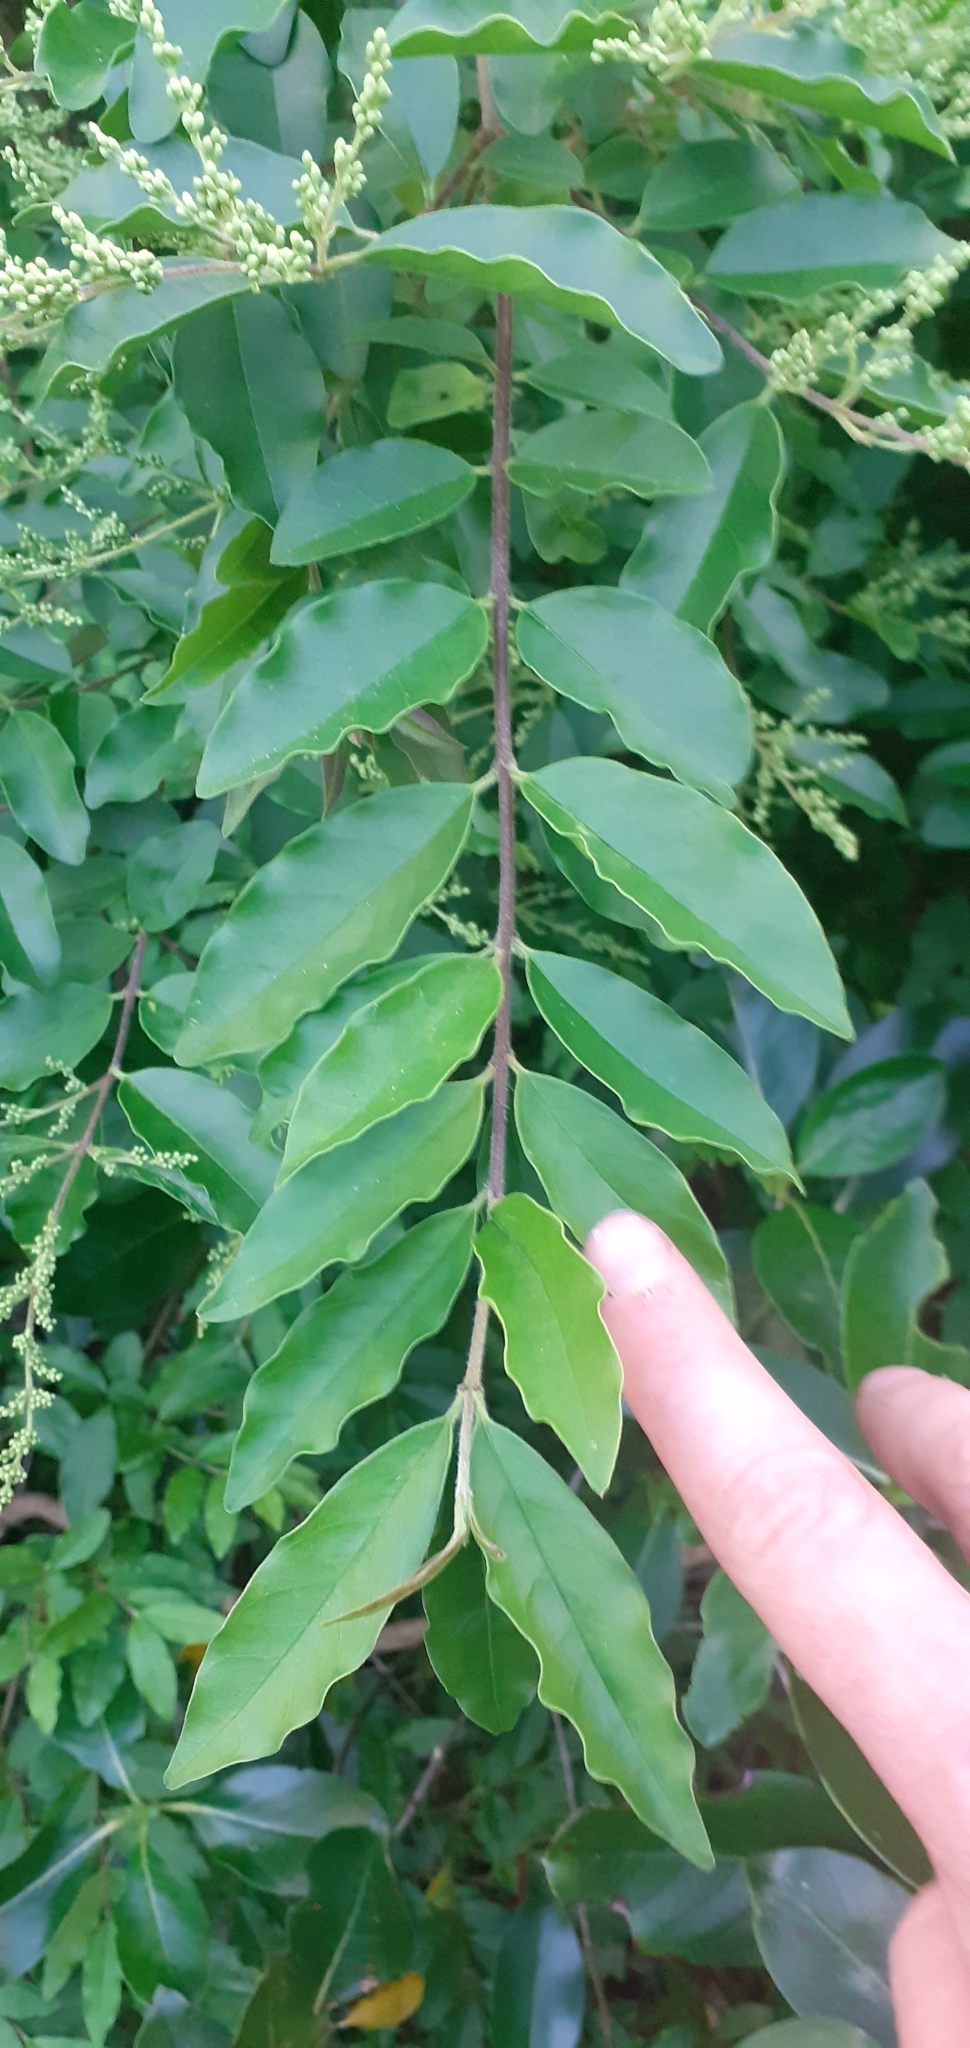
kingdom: Plantae
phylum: Tracheophyta
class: Magnoliopsida
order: Lamiales
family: Oleaceae
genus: Ligustrum
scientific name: Ligustrum sinense
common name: Chinese privet
